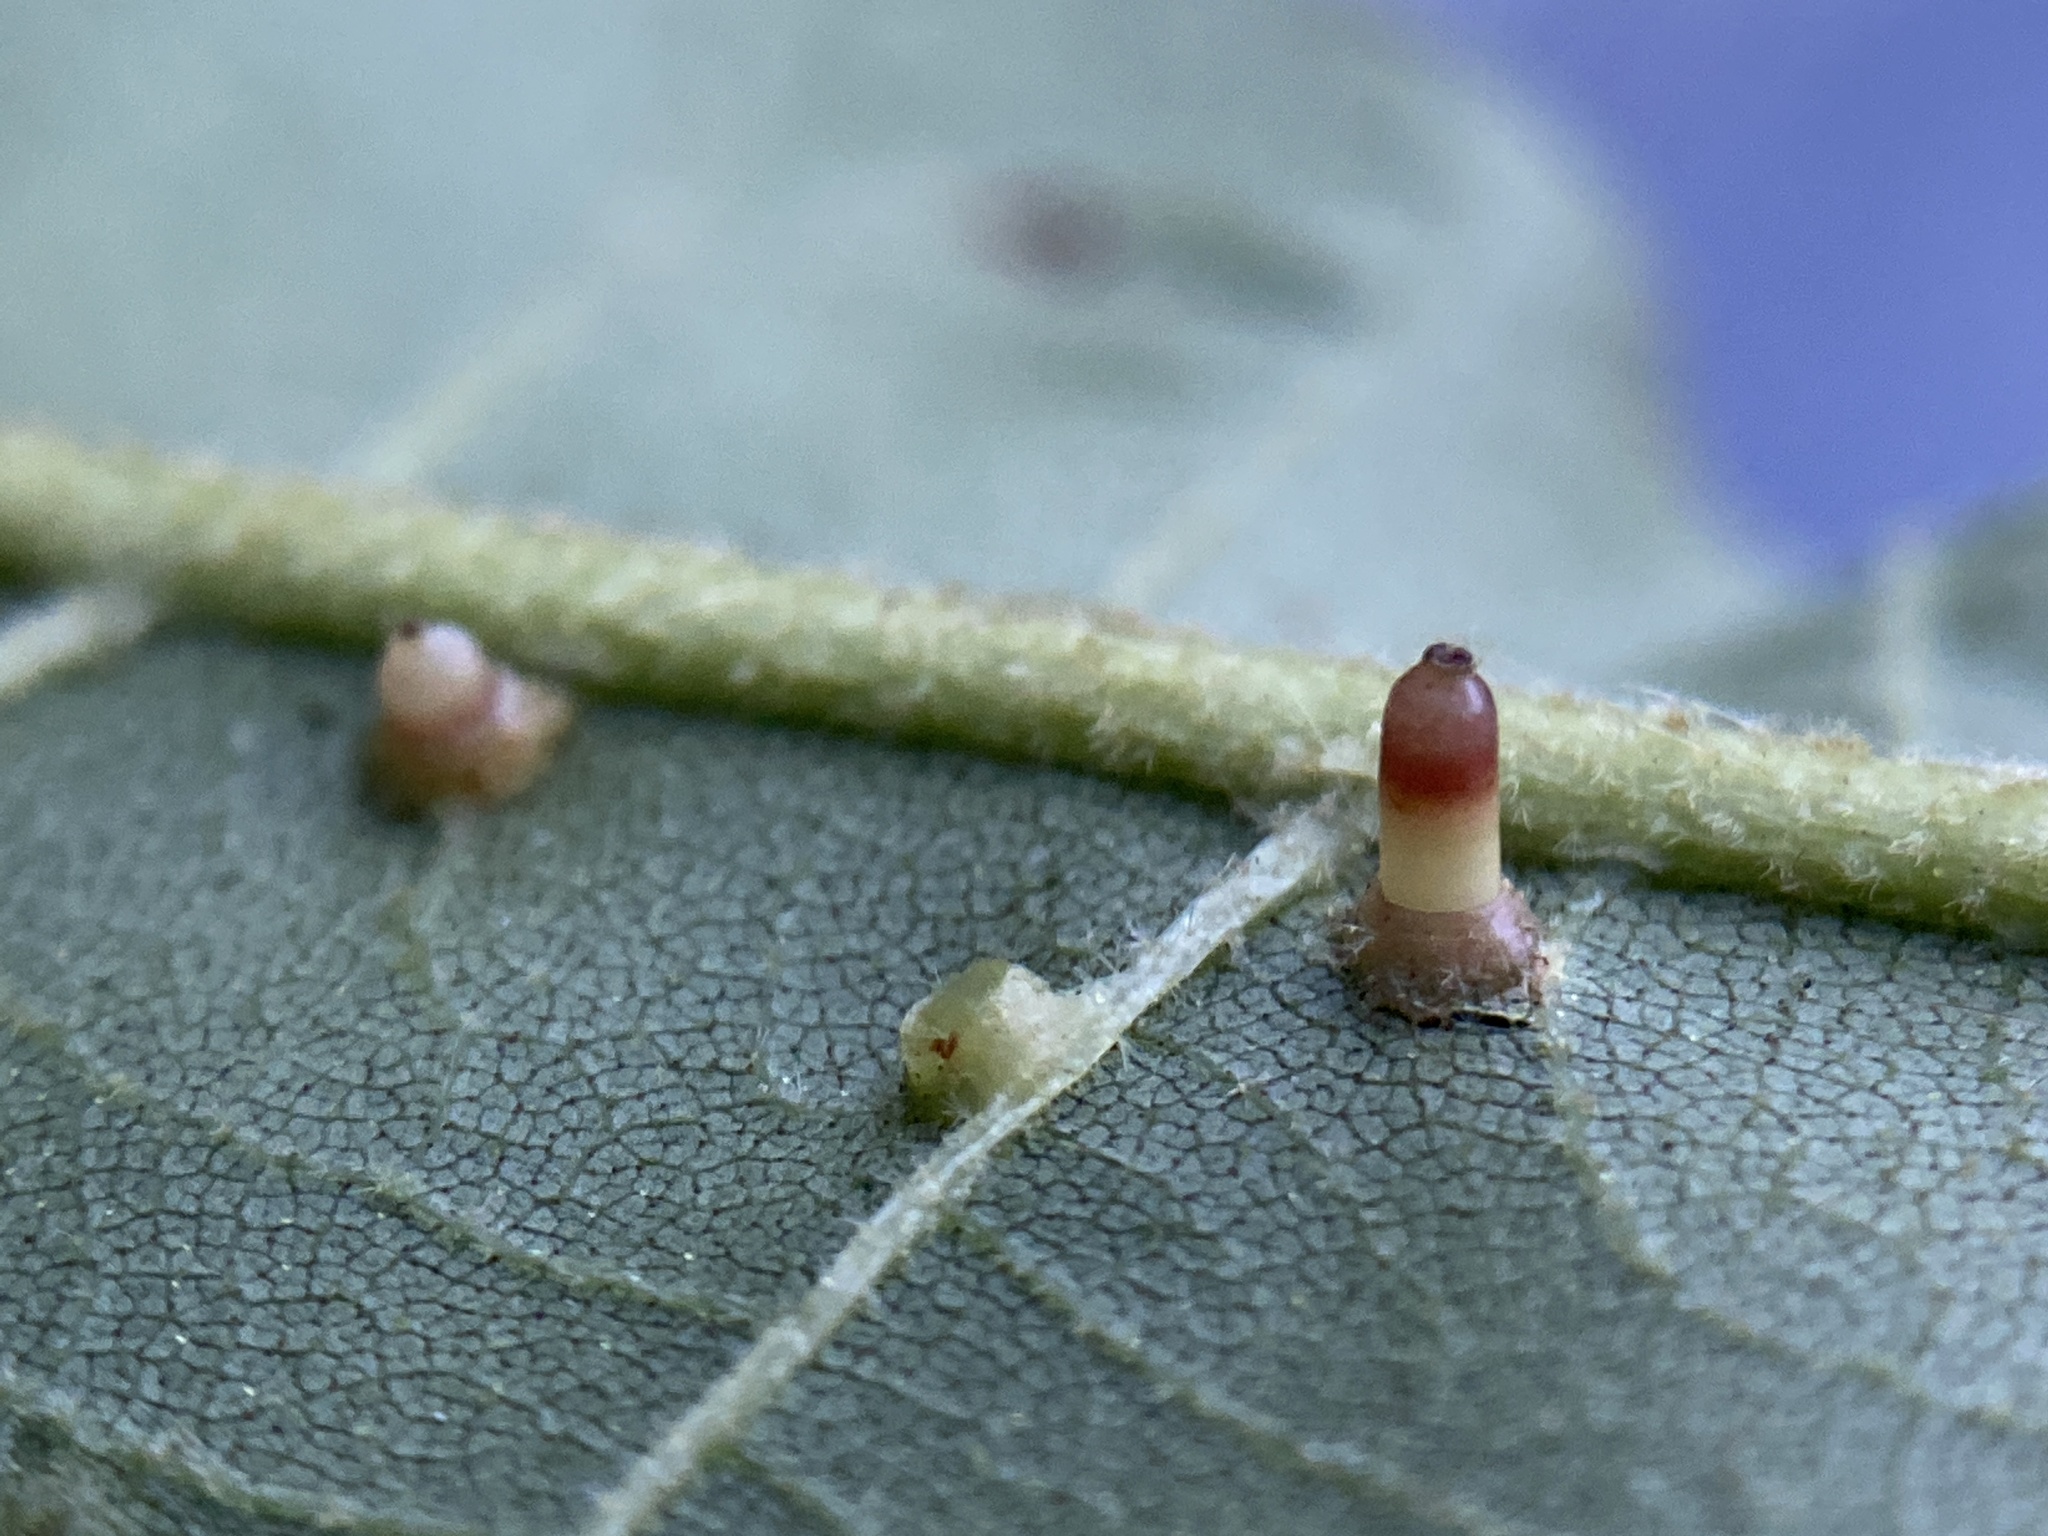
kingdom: Animalia
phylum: Arthropoda
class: Insecta
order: Diptera
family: Cecidomyiidae
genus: Caryomyia
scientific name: Caryomyia tubicola
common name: Hickory bullet gall midge
